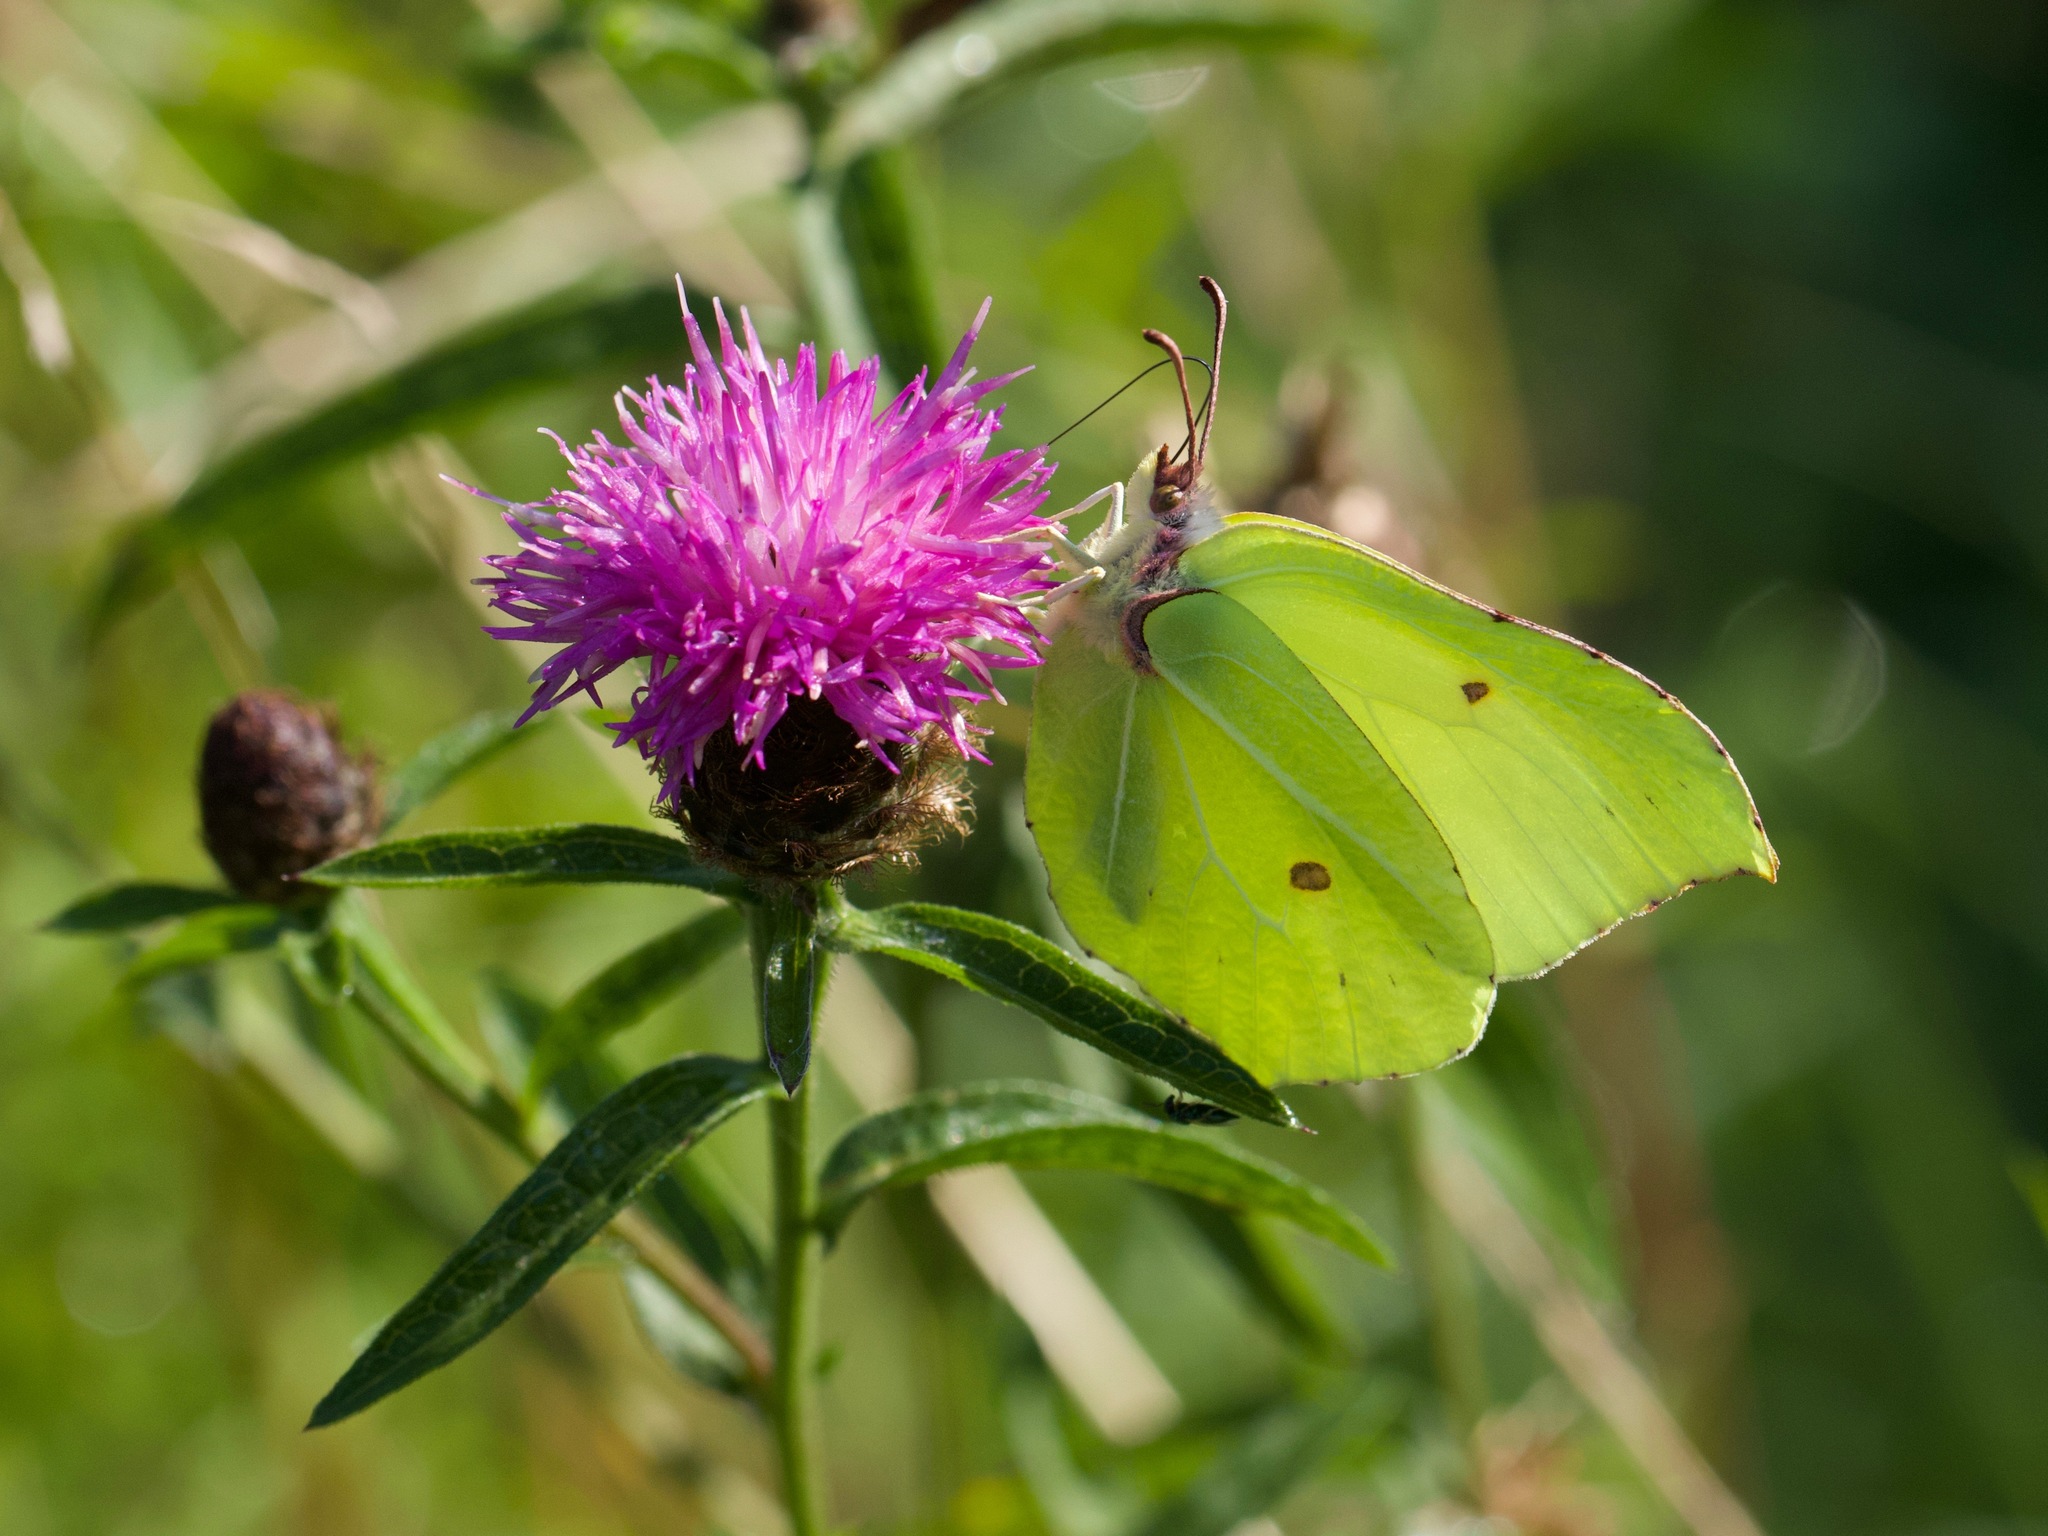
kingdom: Animalia
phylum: Arthropoda
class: Insecta
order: Lepidoptera
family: Pieridae
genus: Gonepteryx
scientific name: Gonepteryx rhamni
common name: Brimstone
